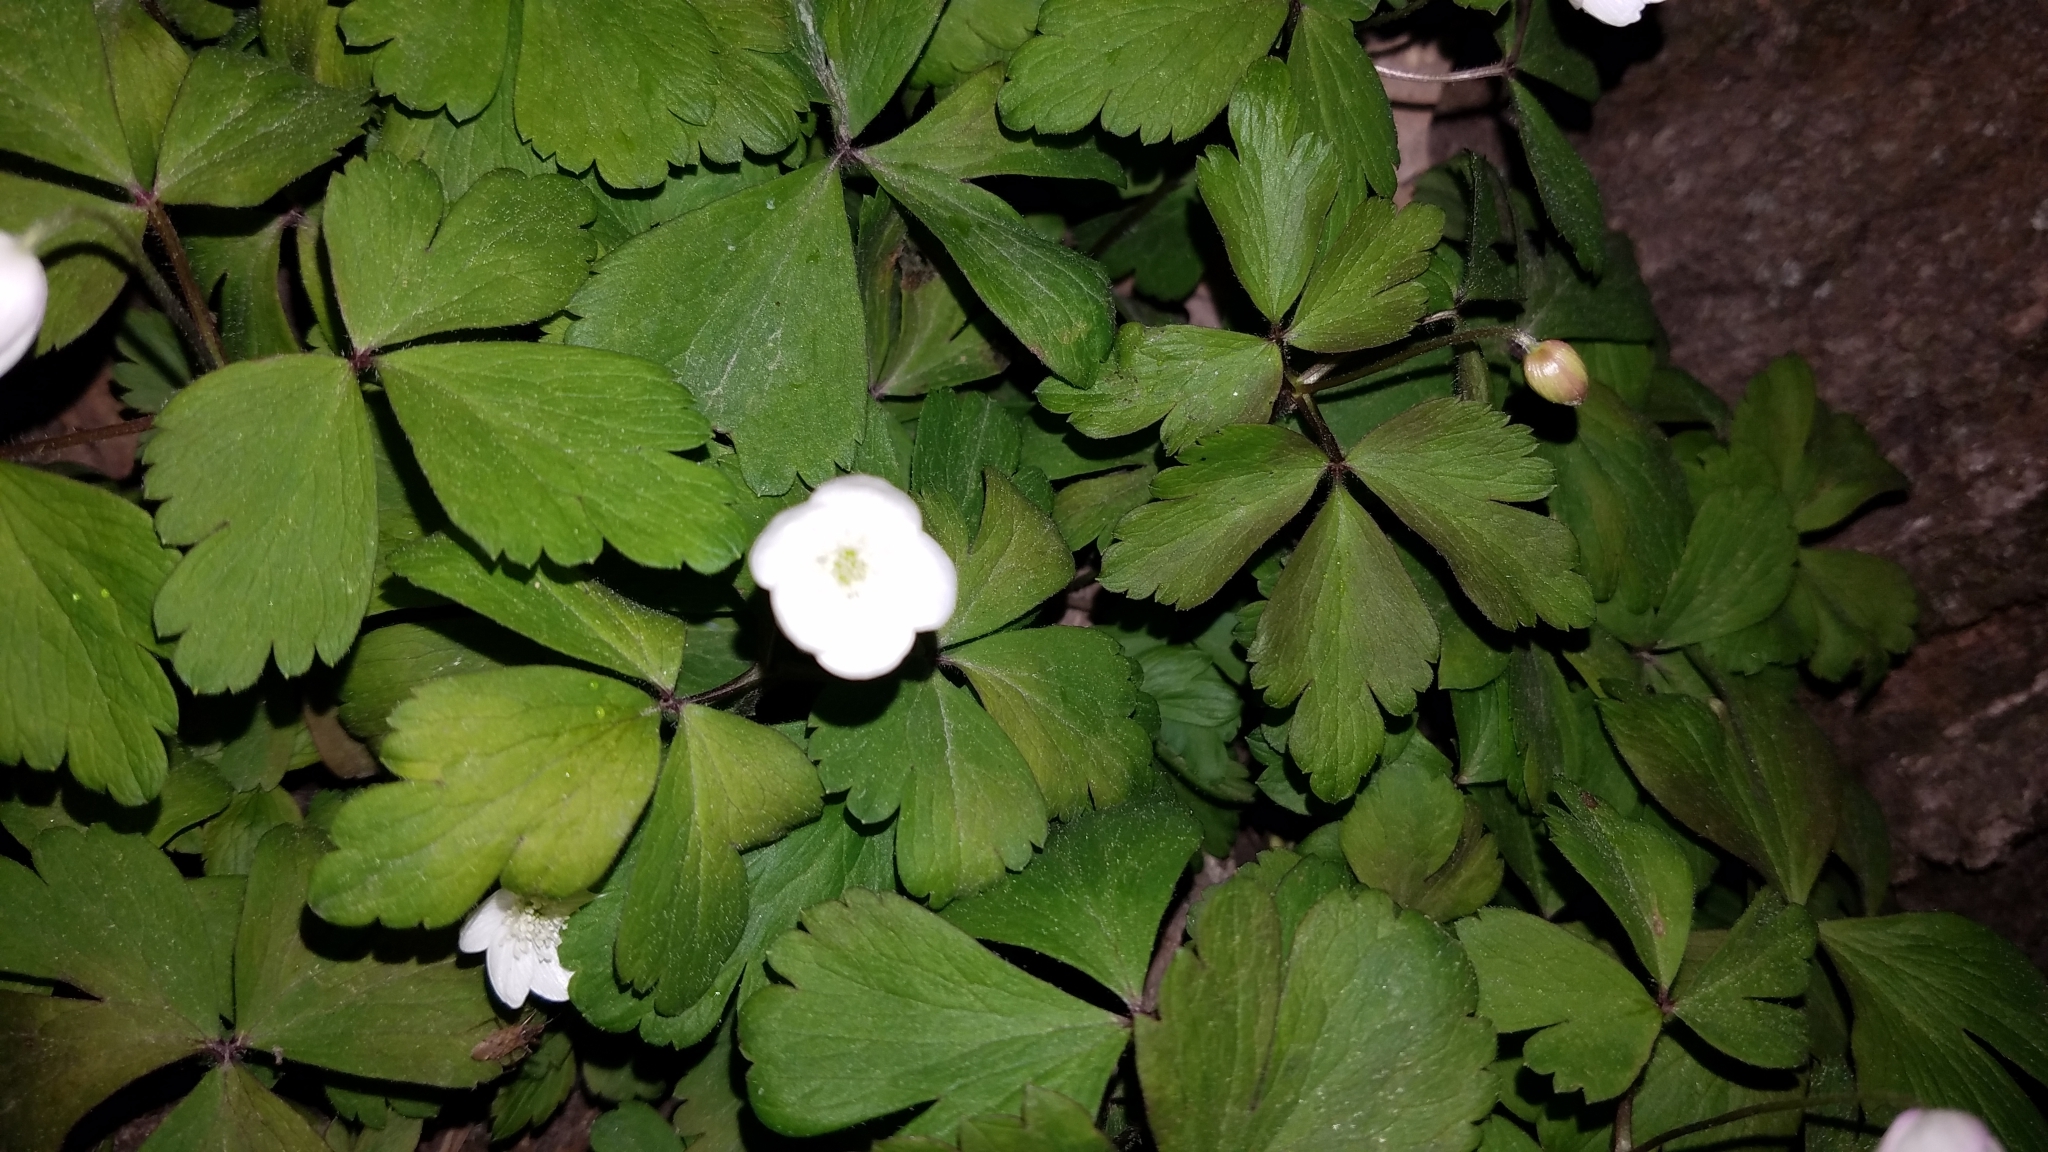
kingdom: Plantae
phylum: Tracheophyta
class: Magnoliopsida
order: Ranunculales
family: Ranunculaceae
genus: Anemone
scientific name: Anemone quinquefolia
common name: Wood anemone
